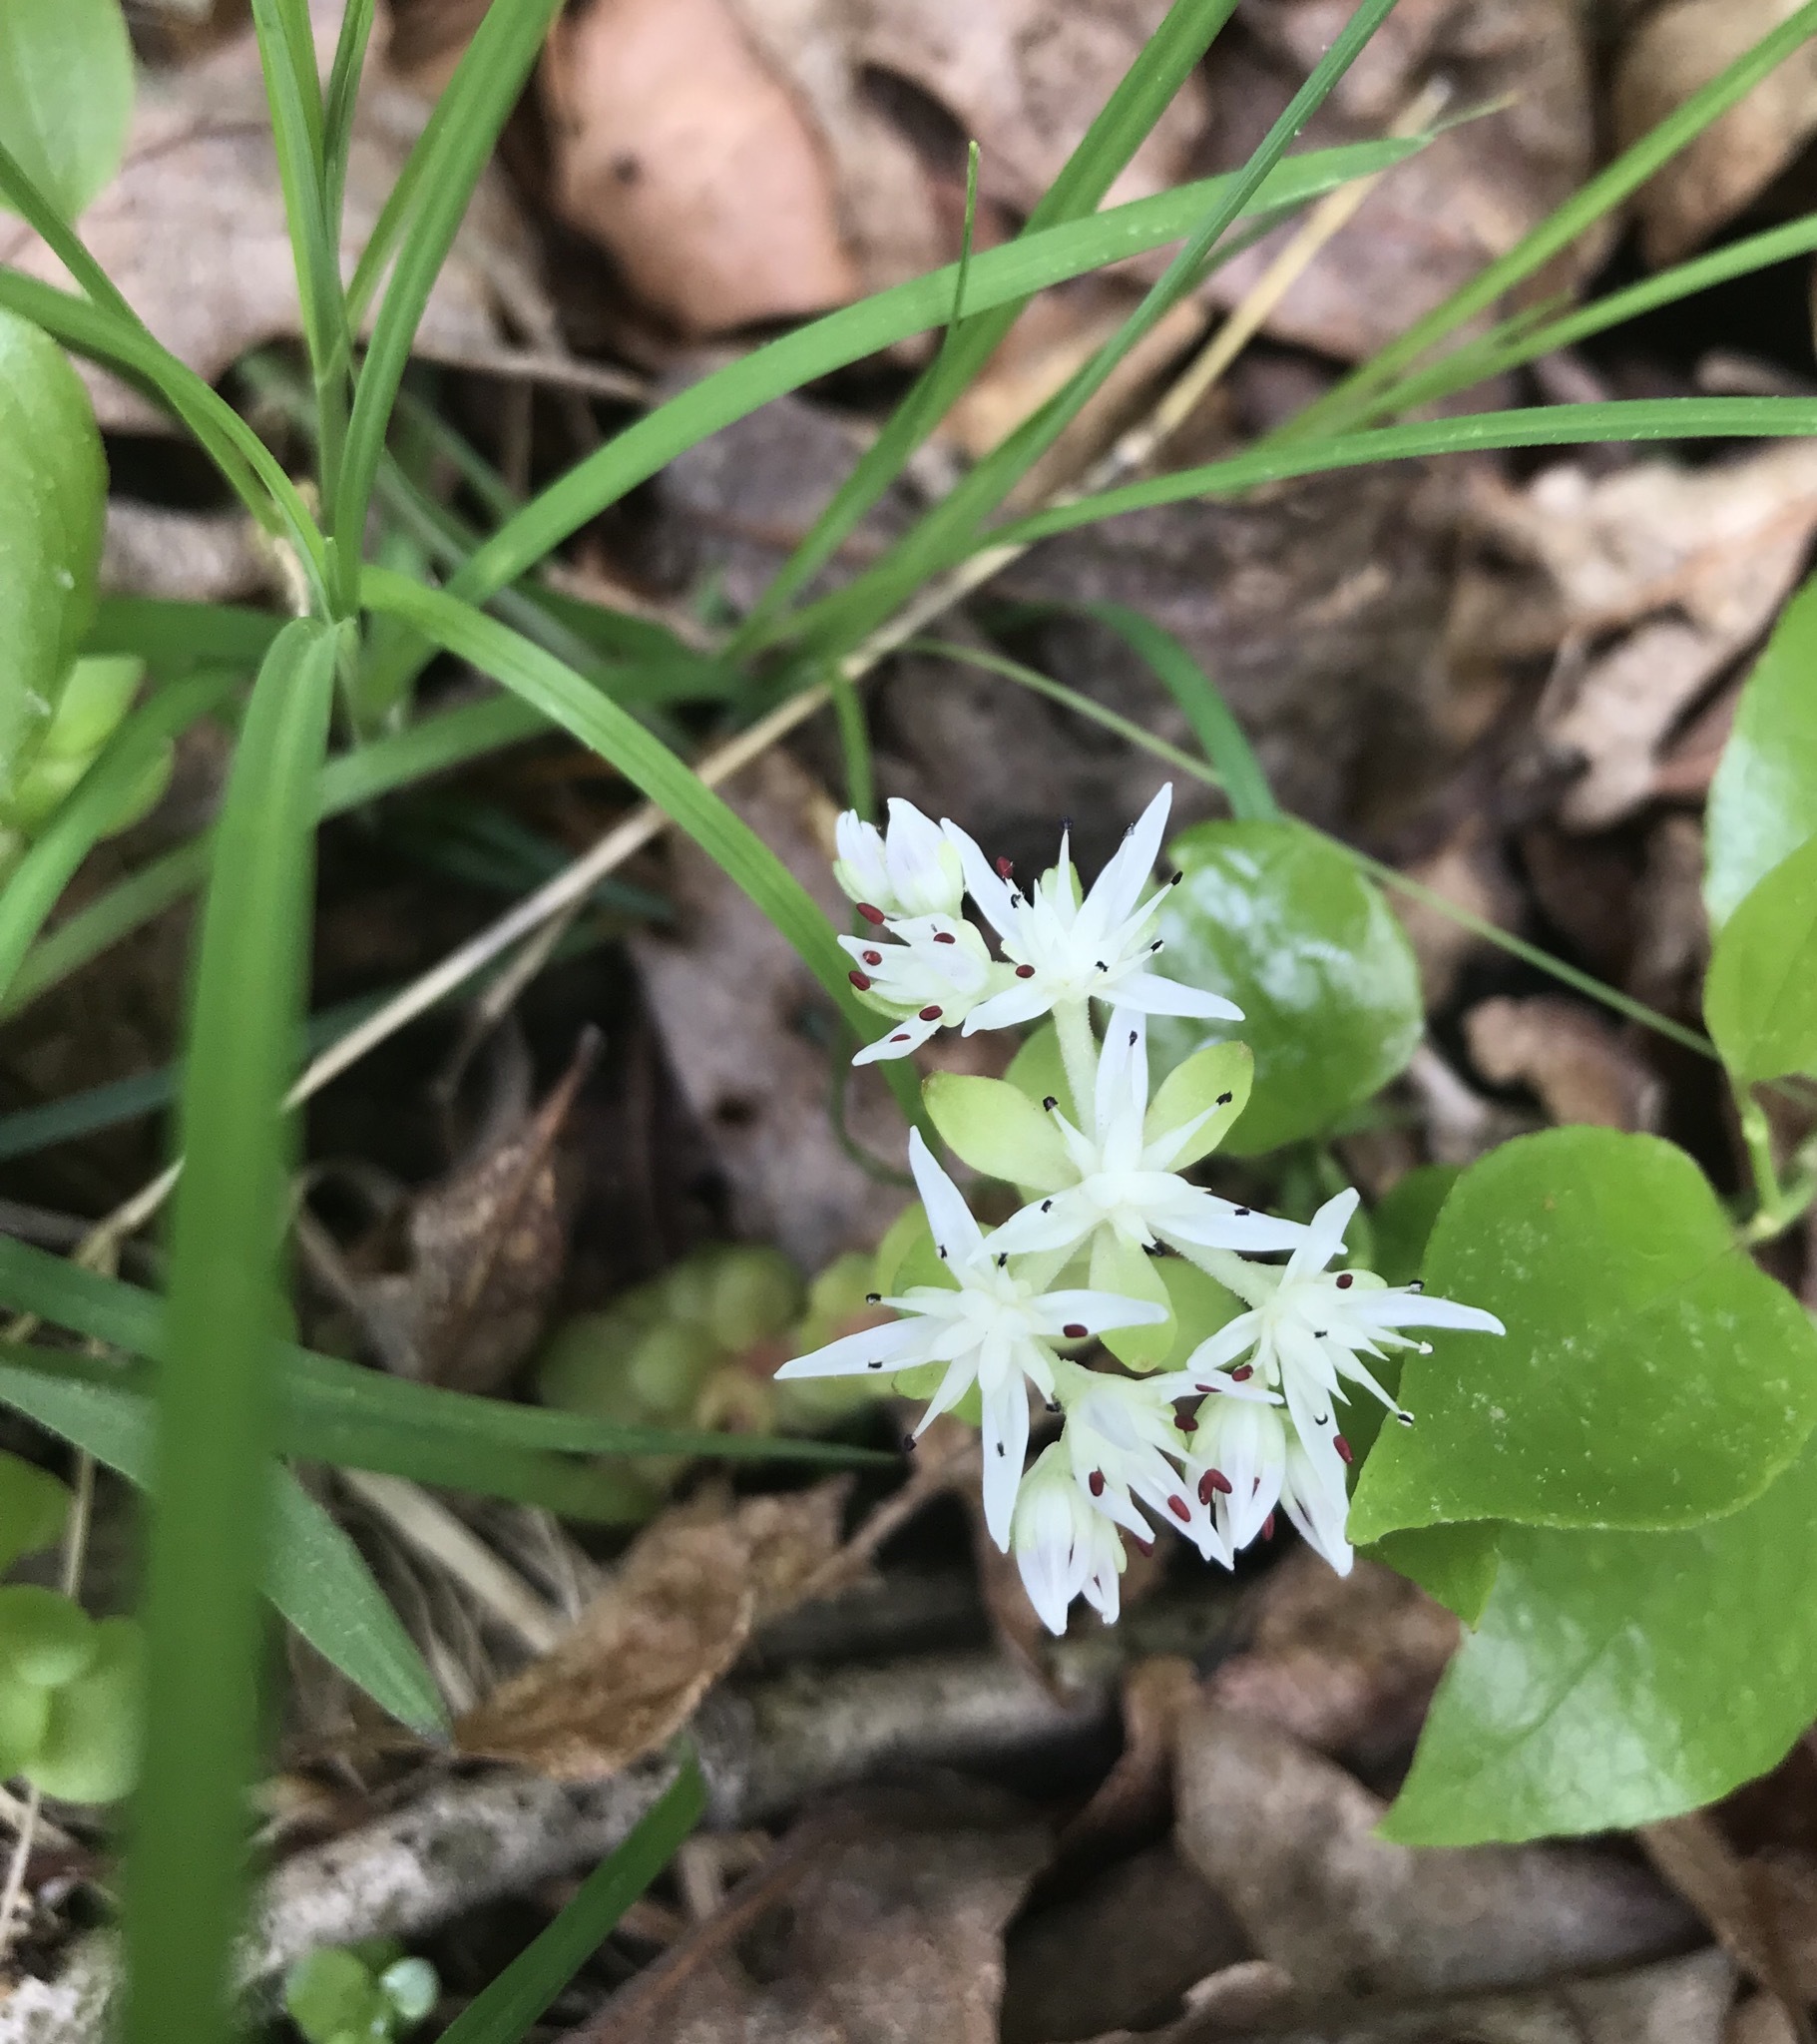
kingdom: Plantae
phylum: Tracheophyta
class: Magnoliopsida
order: Saxifragales
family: Crassulaceae
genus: Sedum
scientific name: Sedum ternatum
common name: Wild stonecrop
